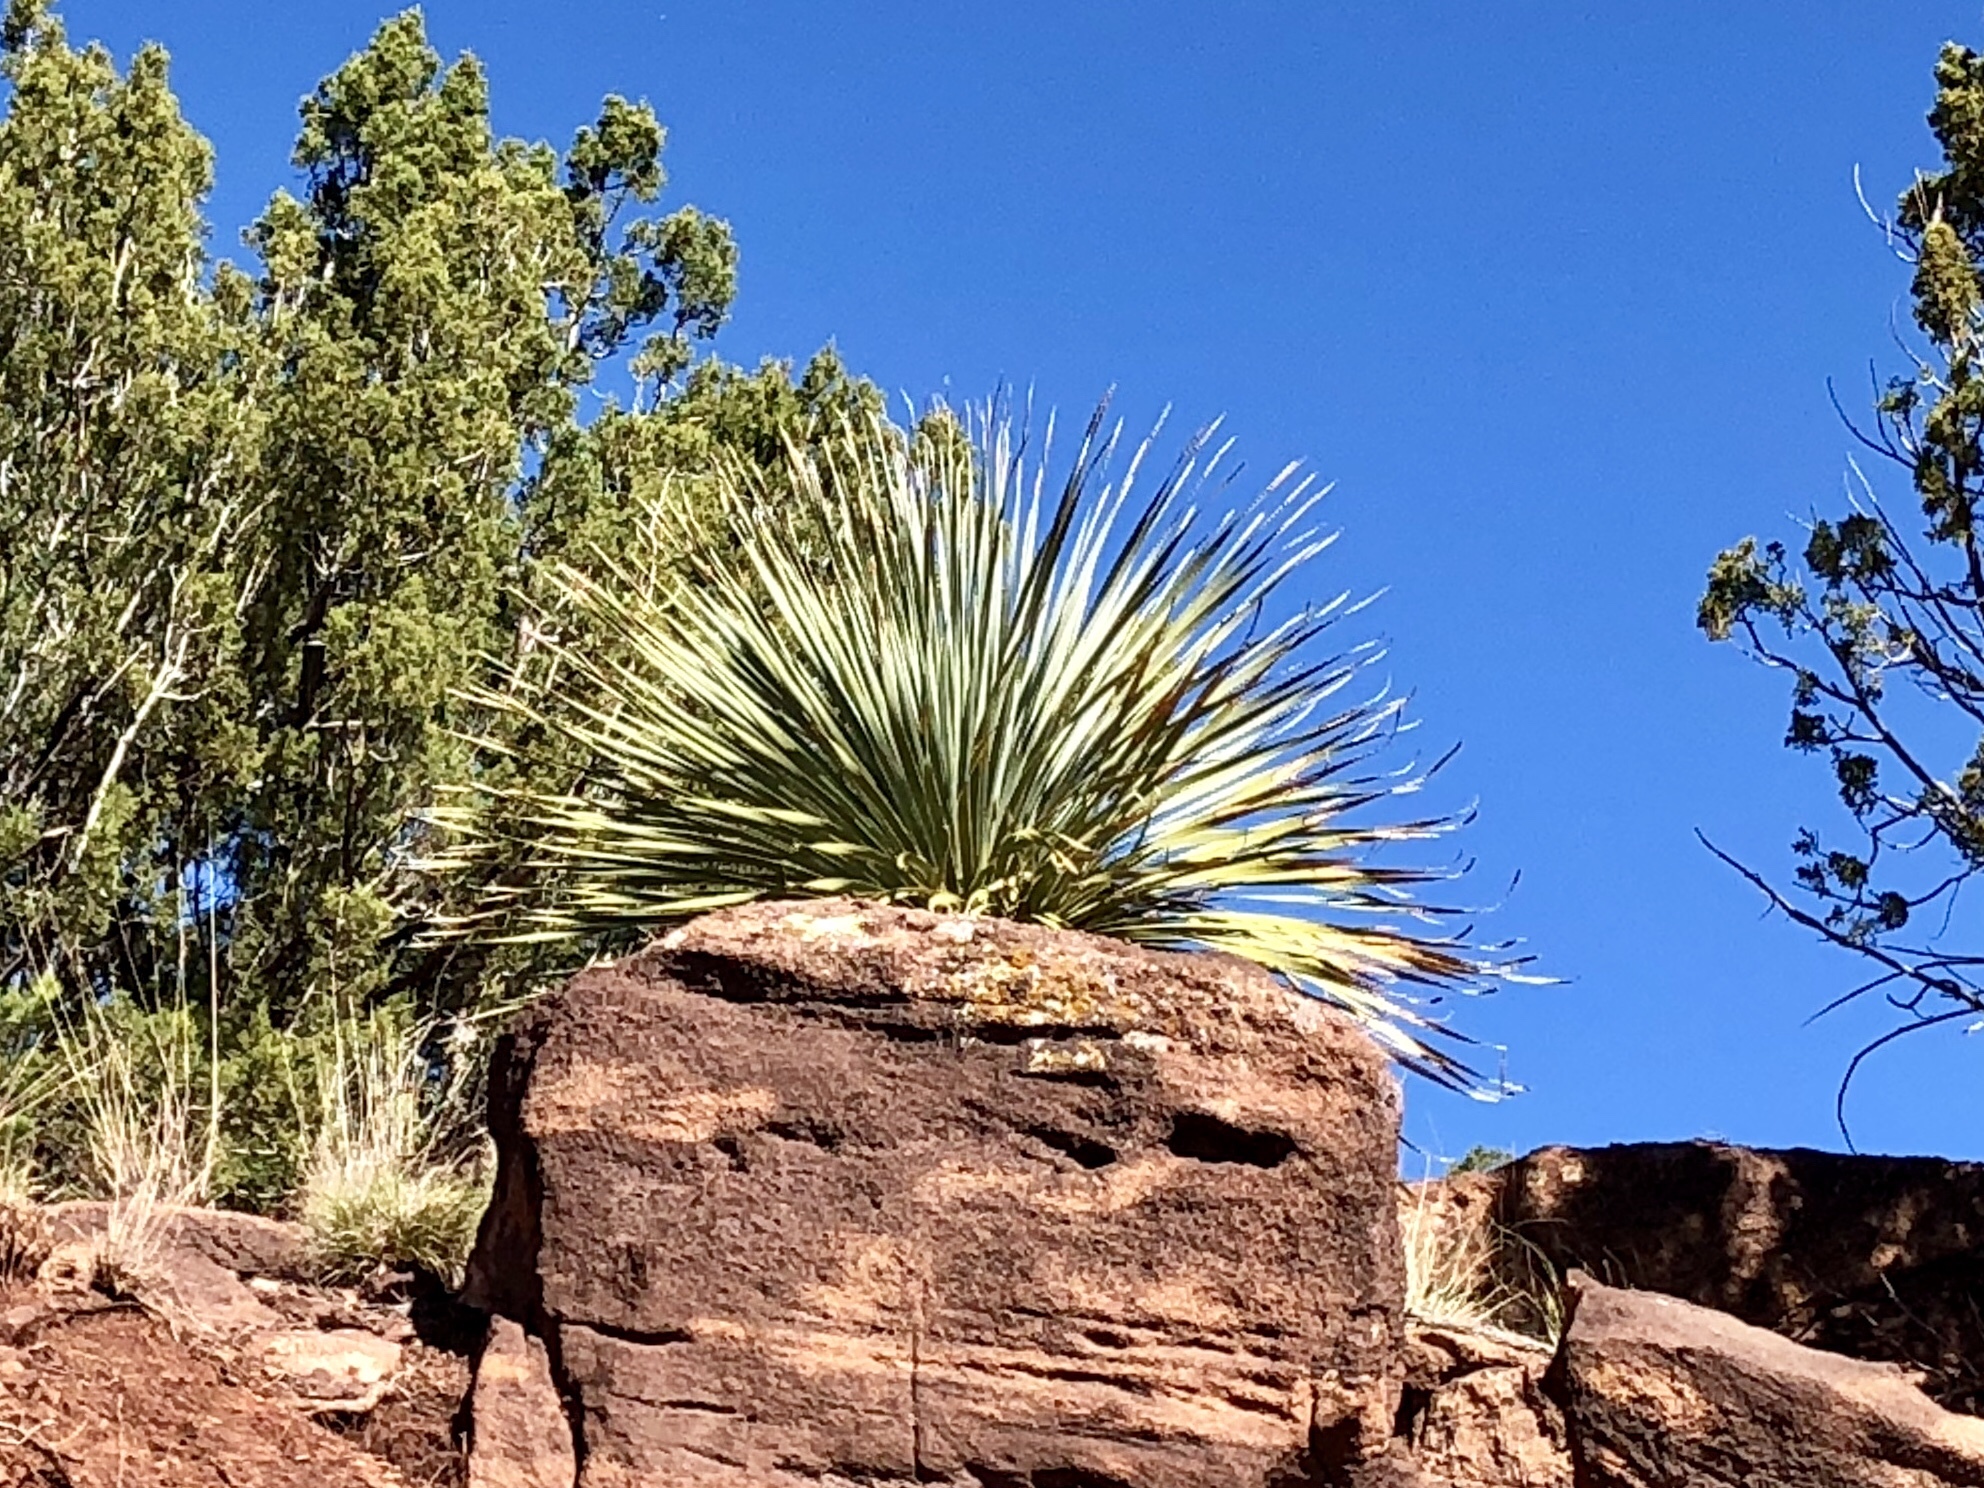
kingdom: Plantae
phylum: Tracheophyta
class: Liliopsida
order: Asparagales
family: Asparagaceae
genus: Dasylirion
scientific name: Dasylirion wheeleri
